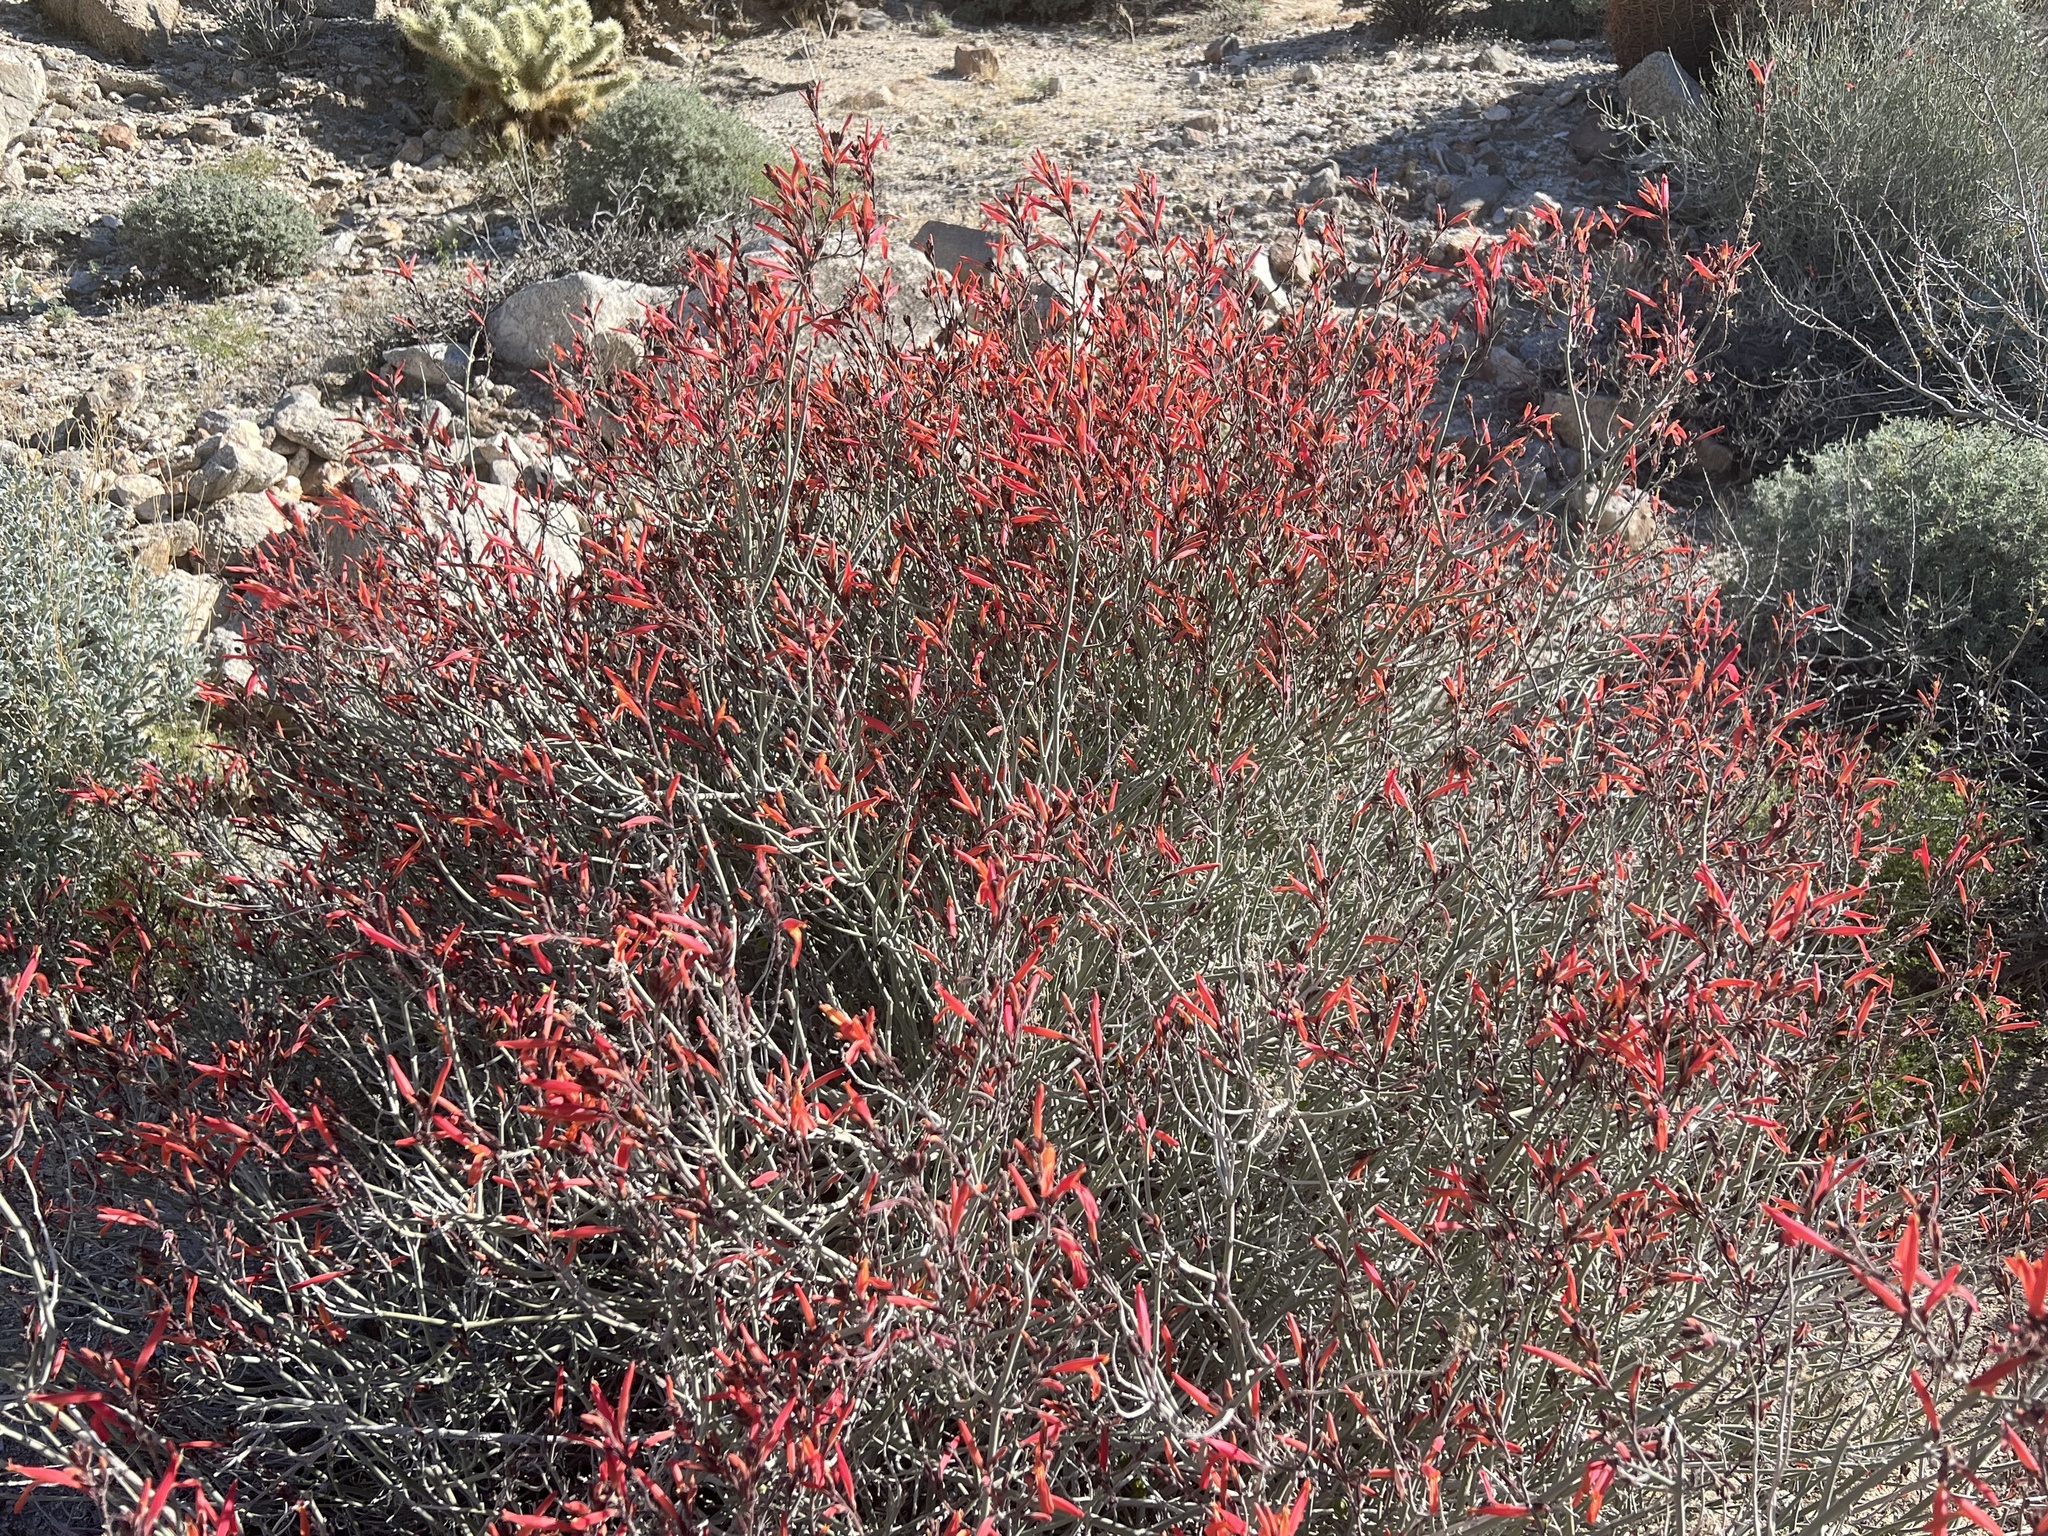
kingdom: Plantae
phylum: Tracheophyta
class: Magnoliopsida
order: Lamiales
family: Acanthaceae
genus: Justicia
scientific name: Justicia californica
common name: Chuparosa-honeysuckle
